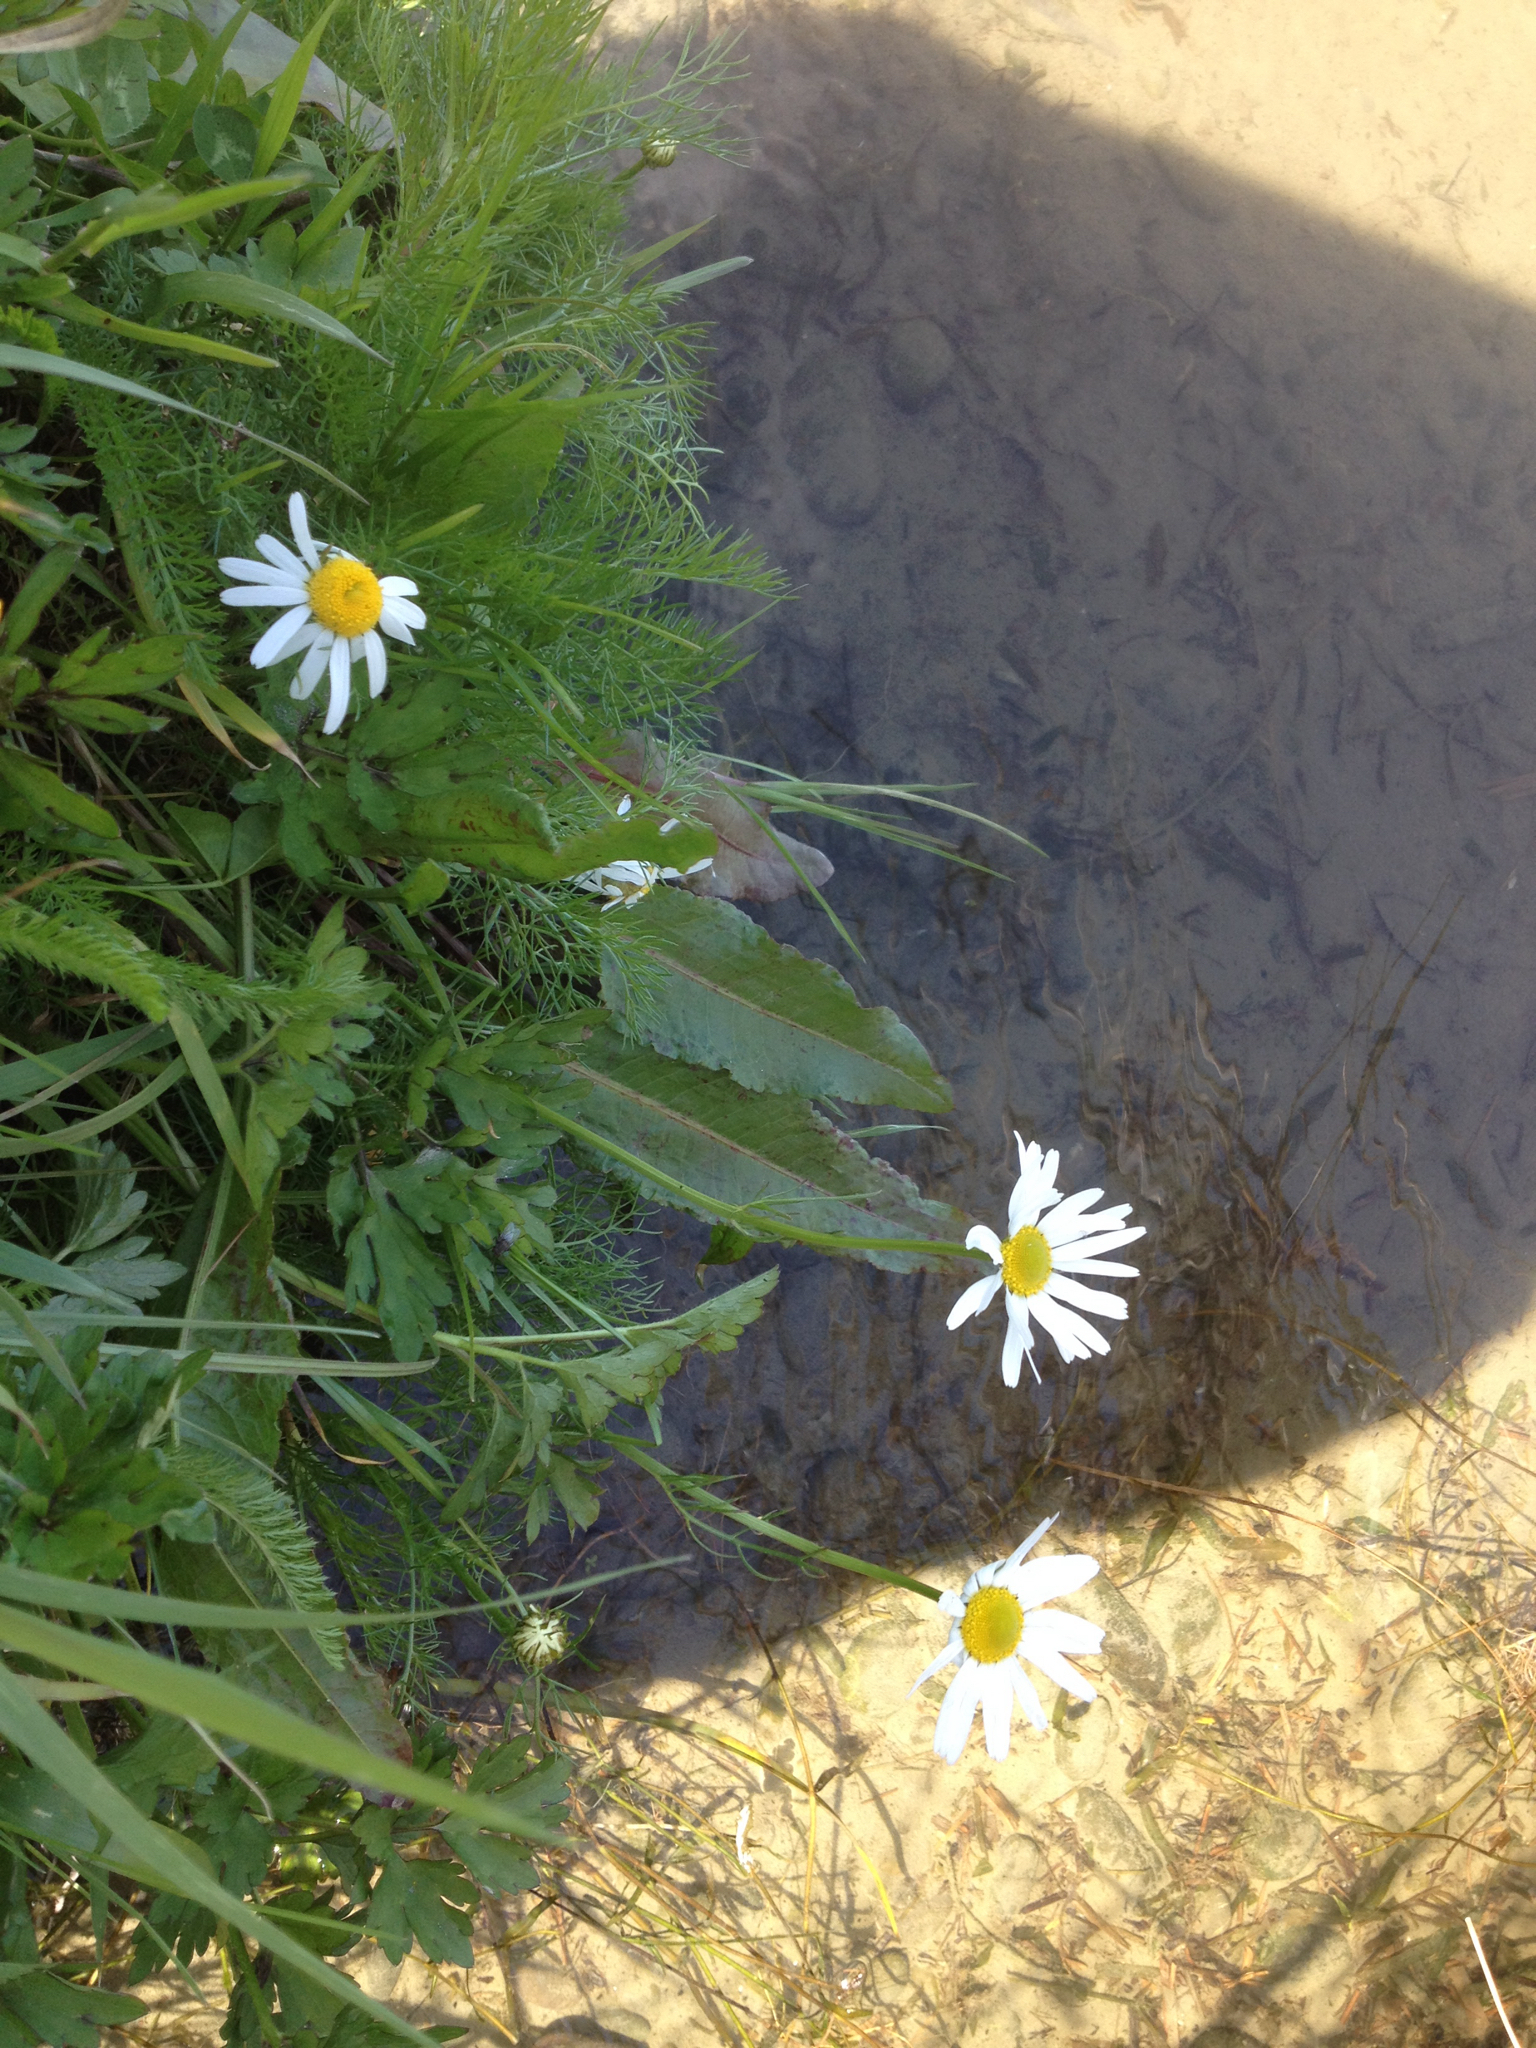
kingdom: Plantae
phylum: Tracheophyta
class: Magnoliopsida
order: Asterales
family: Asteraceae
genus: Tripleurospermum
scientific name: Tripleurospermum inodorum
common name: Scentless mayweed
